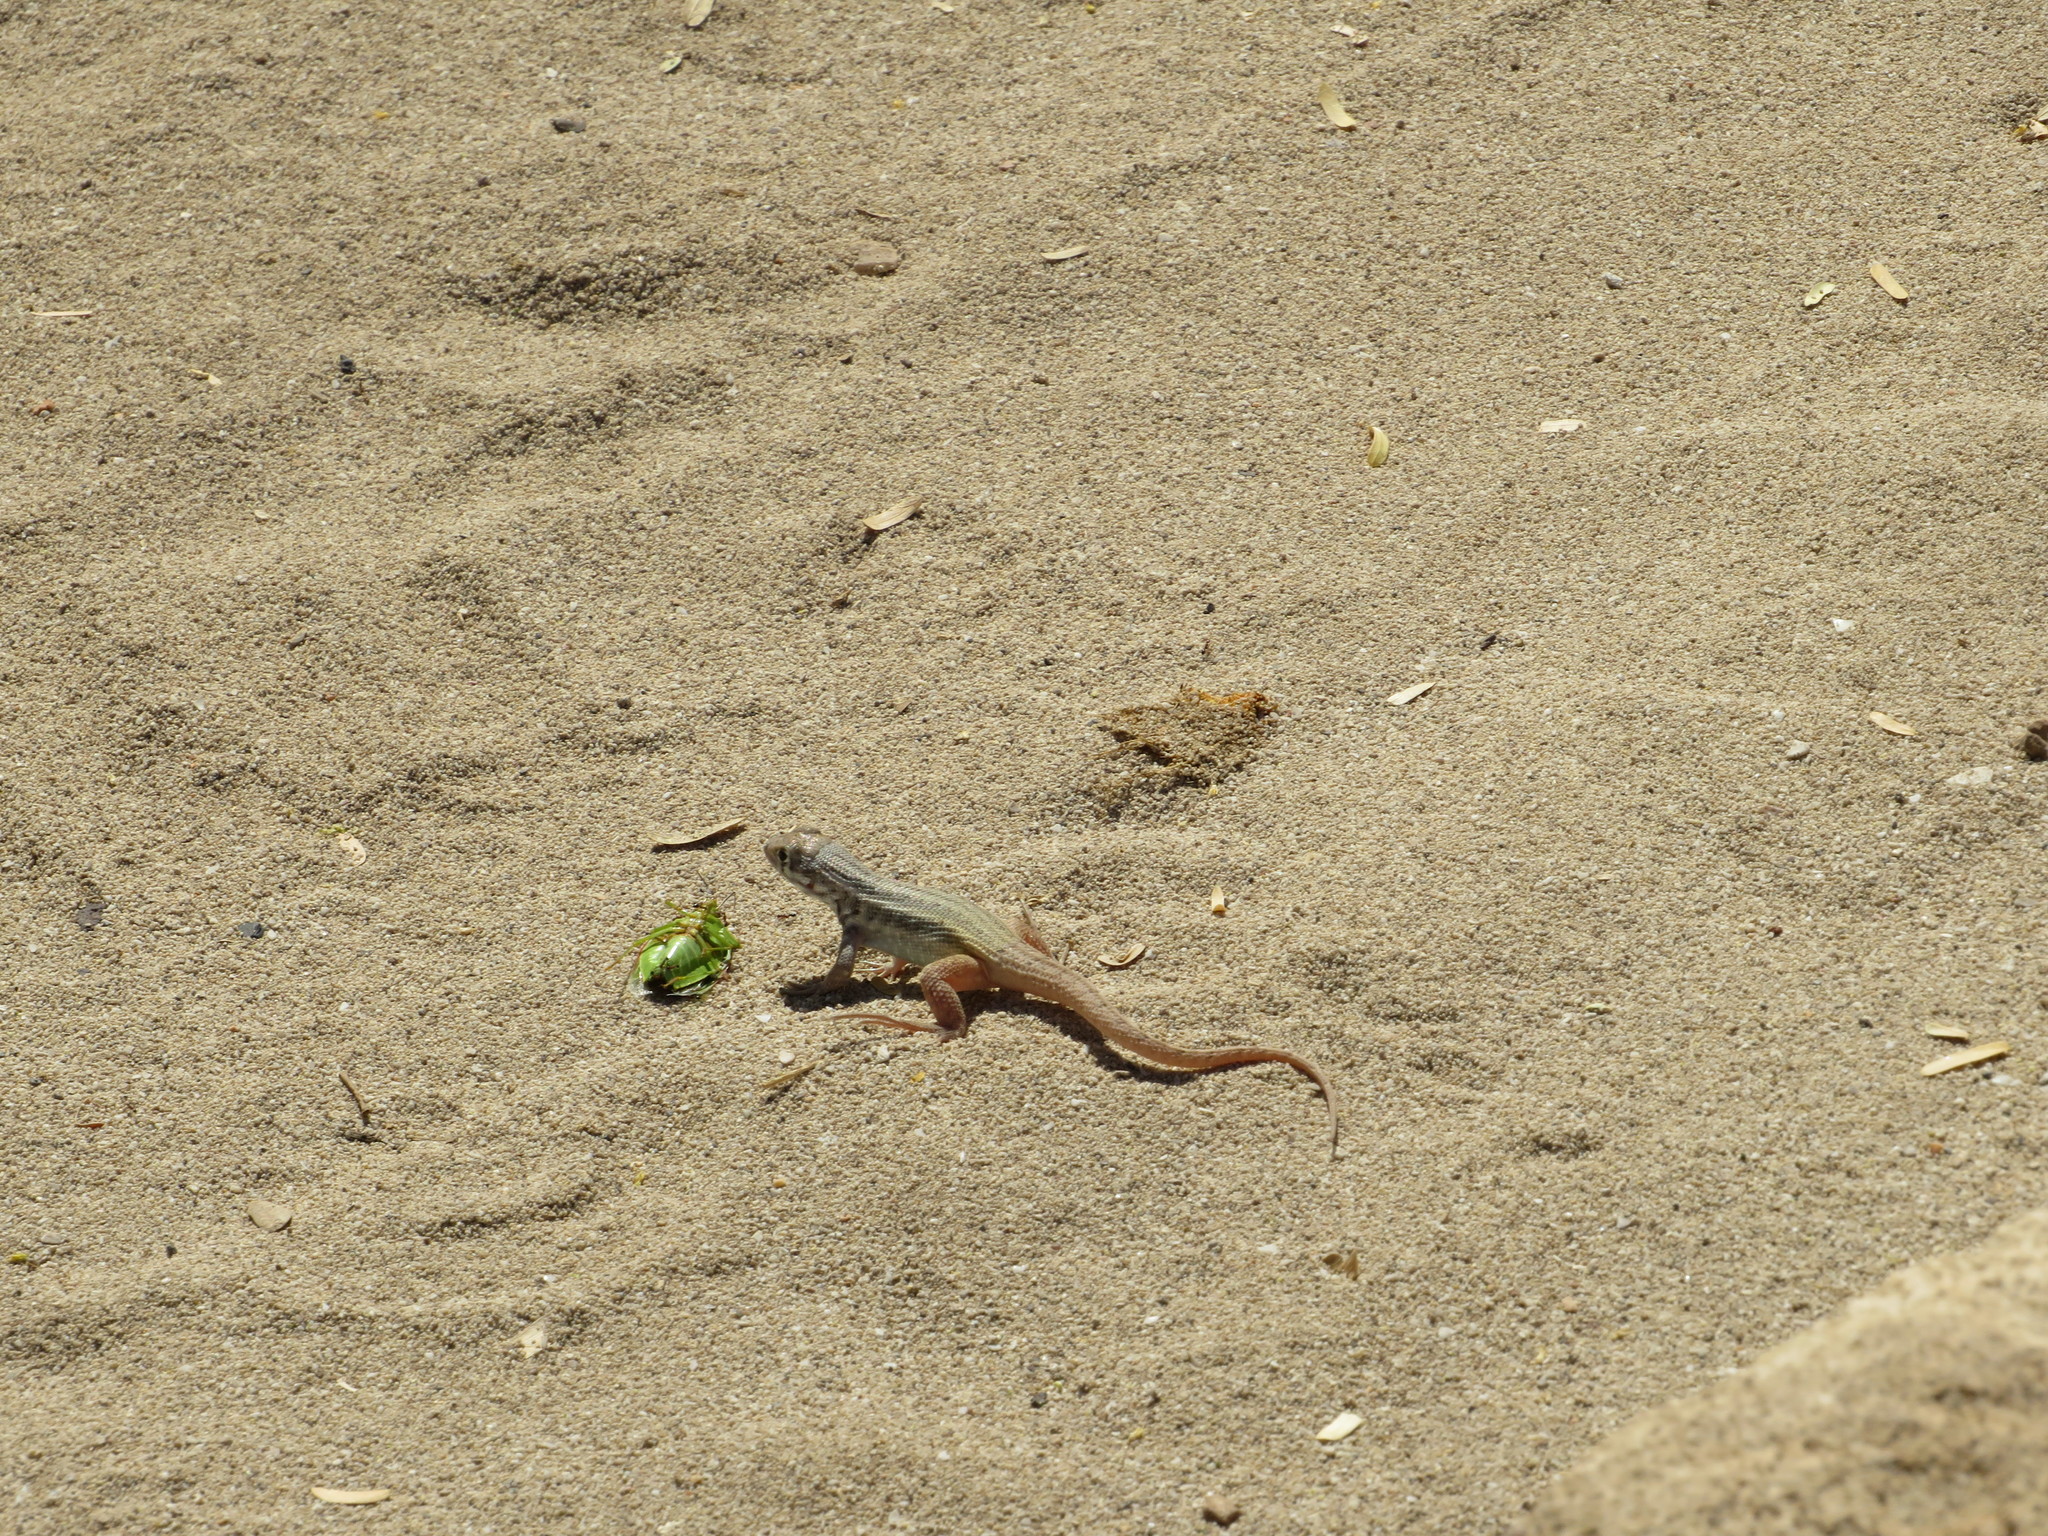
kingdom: Animalia
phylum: Chordata
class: Squamata
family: Leiocephalidae
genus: Leiocephalus
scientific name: Leiocephalus barahonensis
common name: Barahona curlytail lizard
